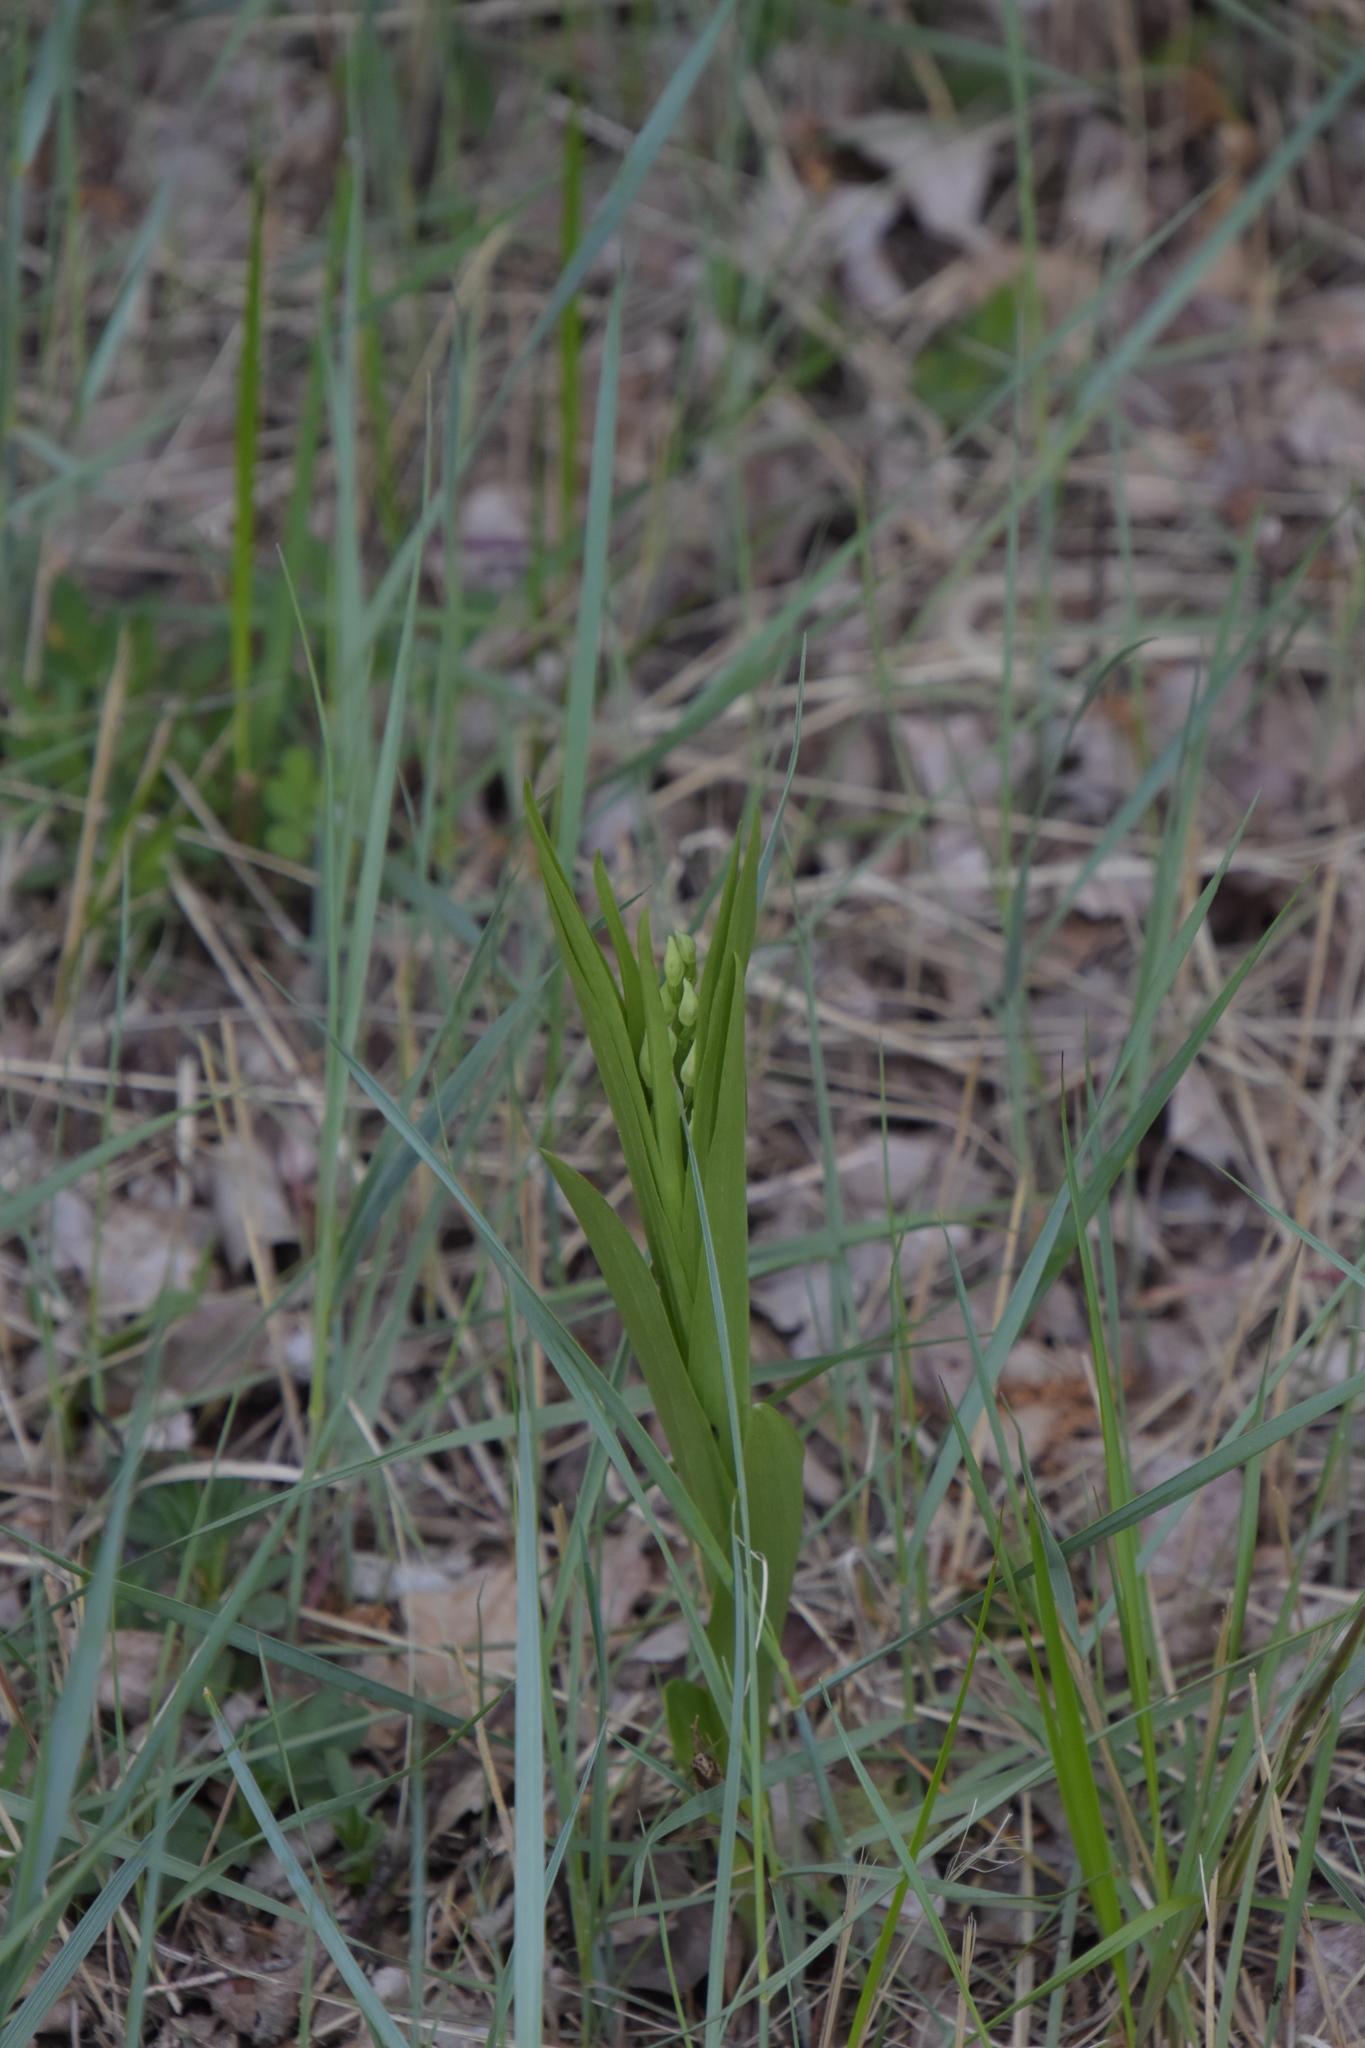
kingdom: Plantae
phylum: Tracheophyta
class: Liliopsida
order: Asparagales
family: Orchidaceae
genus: Cephalanthera
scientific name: Cephalanthera longifolia
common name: Narrow-leaved helleborine
